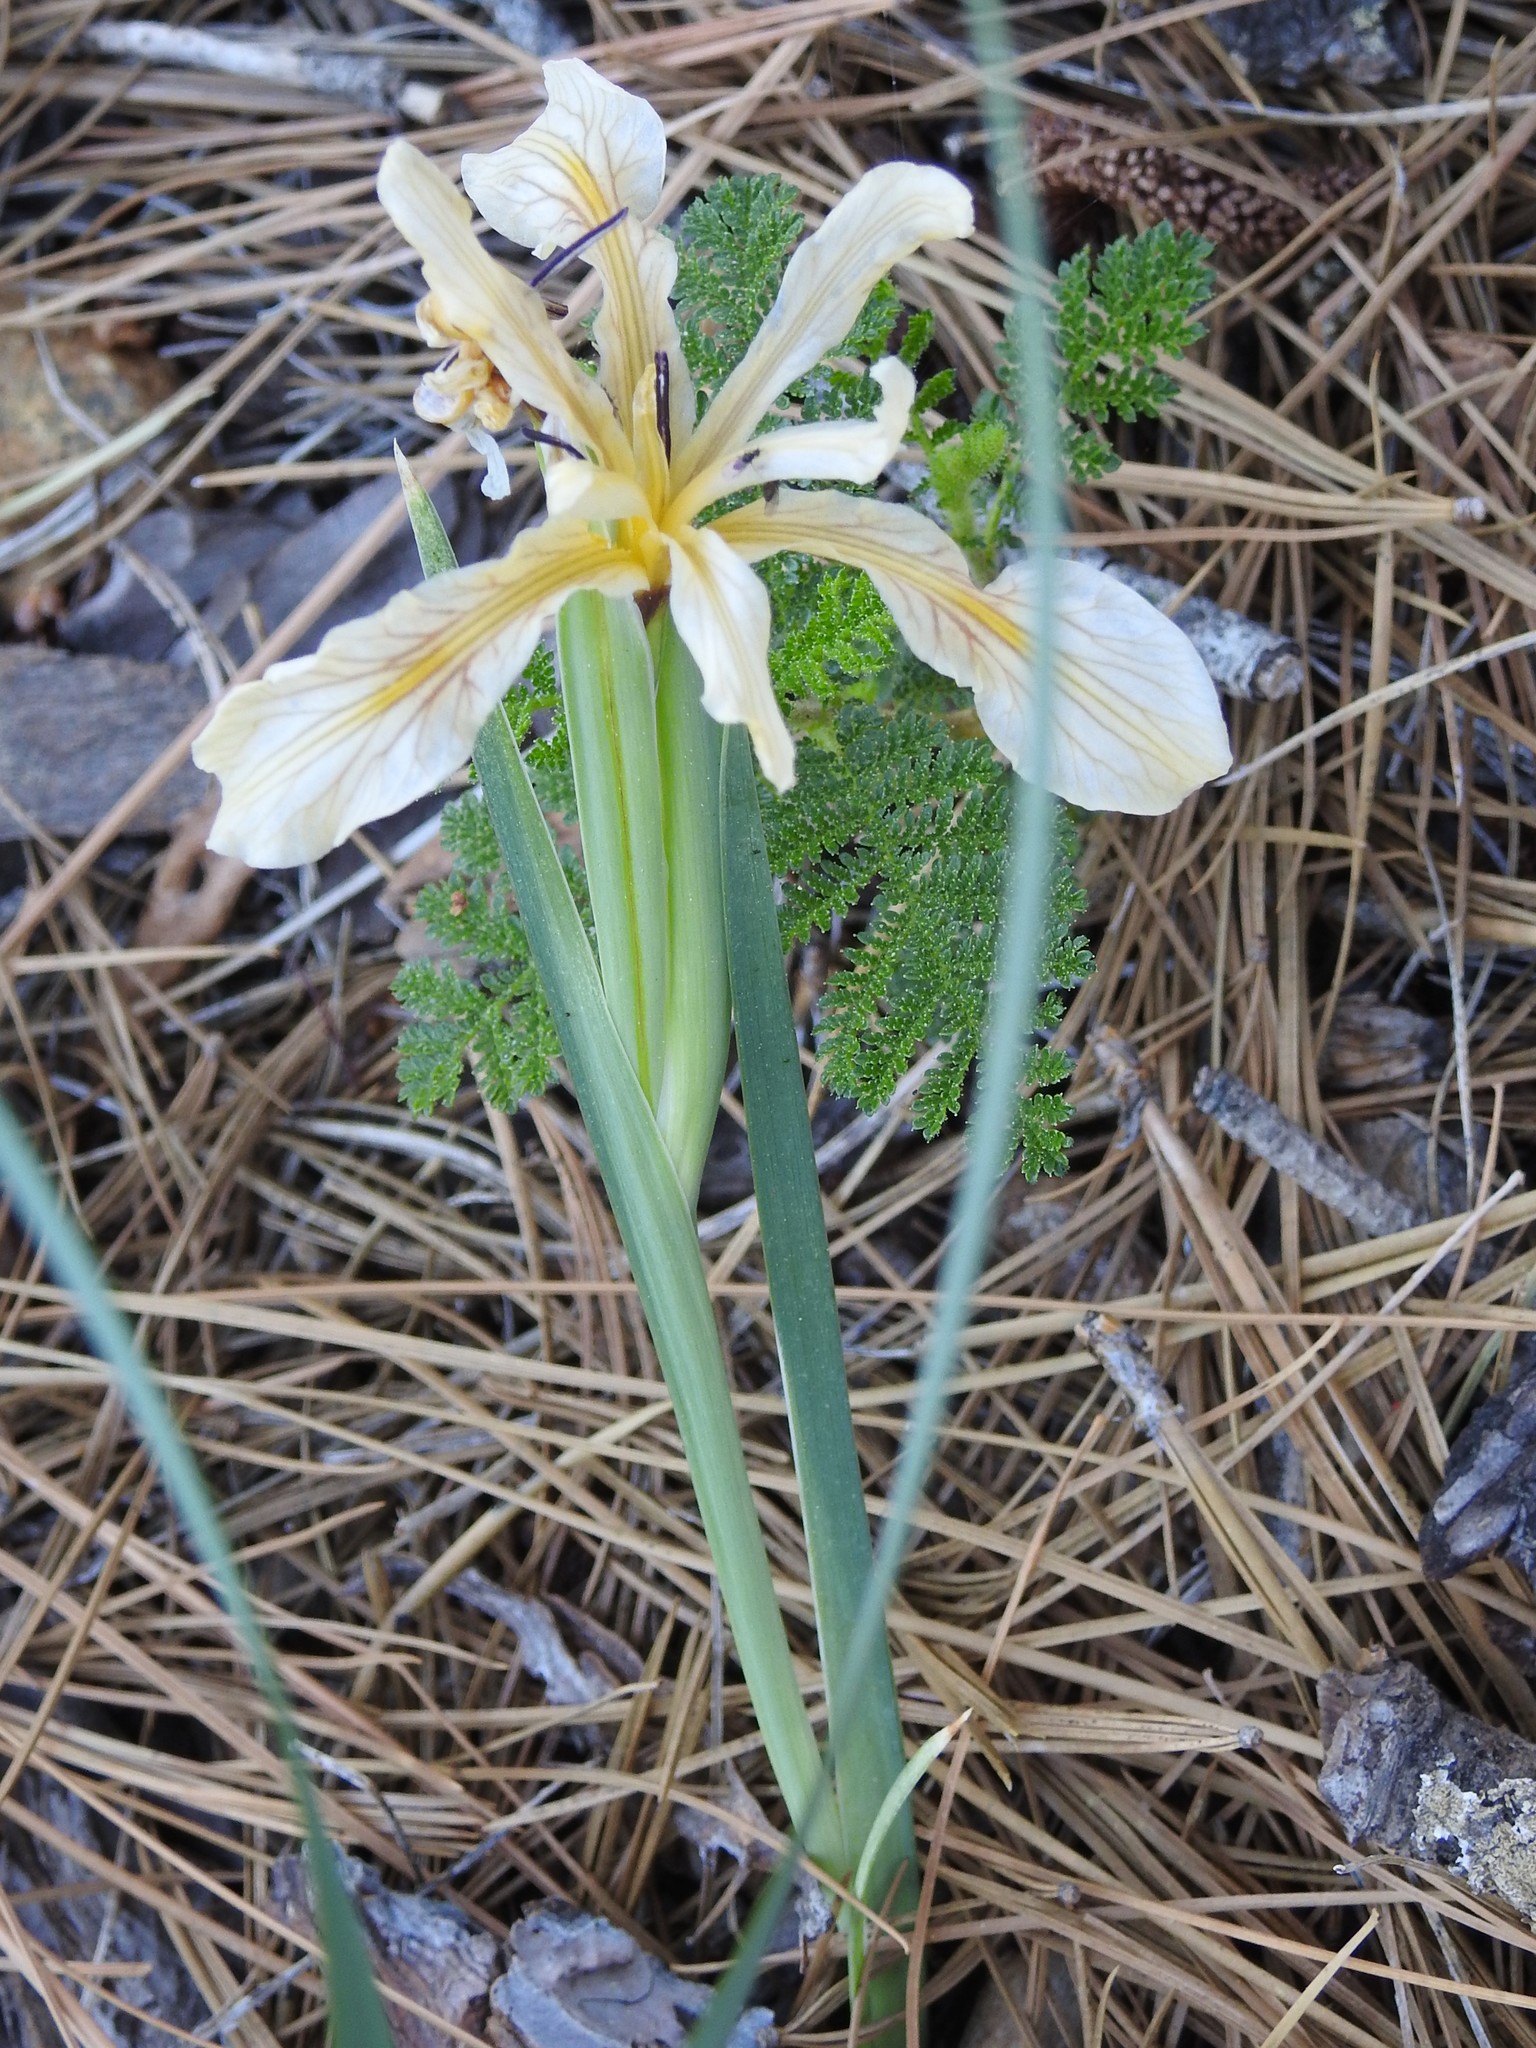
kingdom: Plantae
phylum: Tracheophyta
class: Liliopsida
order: Asparagales
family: Iridaceae
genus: Iris
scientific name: Iris hartwegii
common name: Sierra iris
